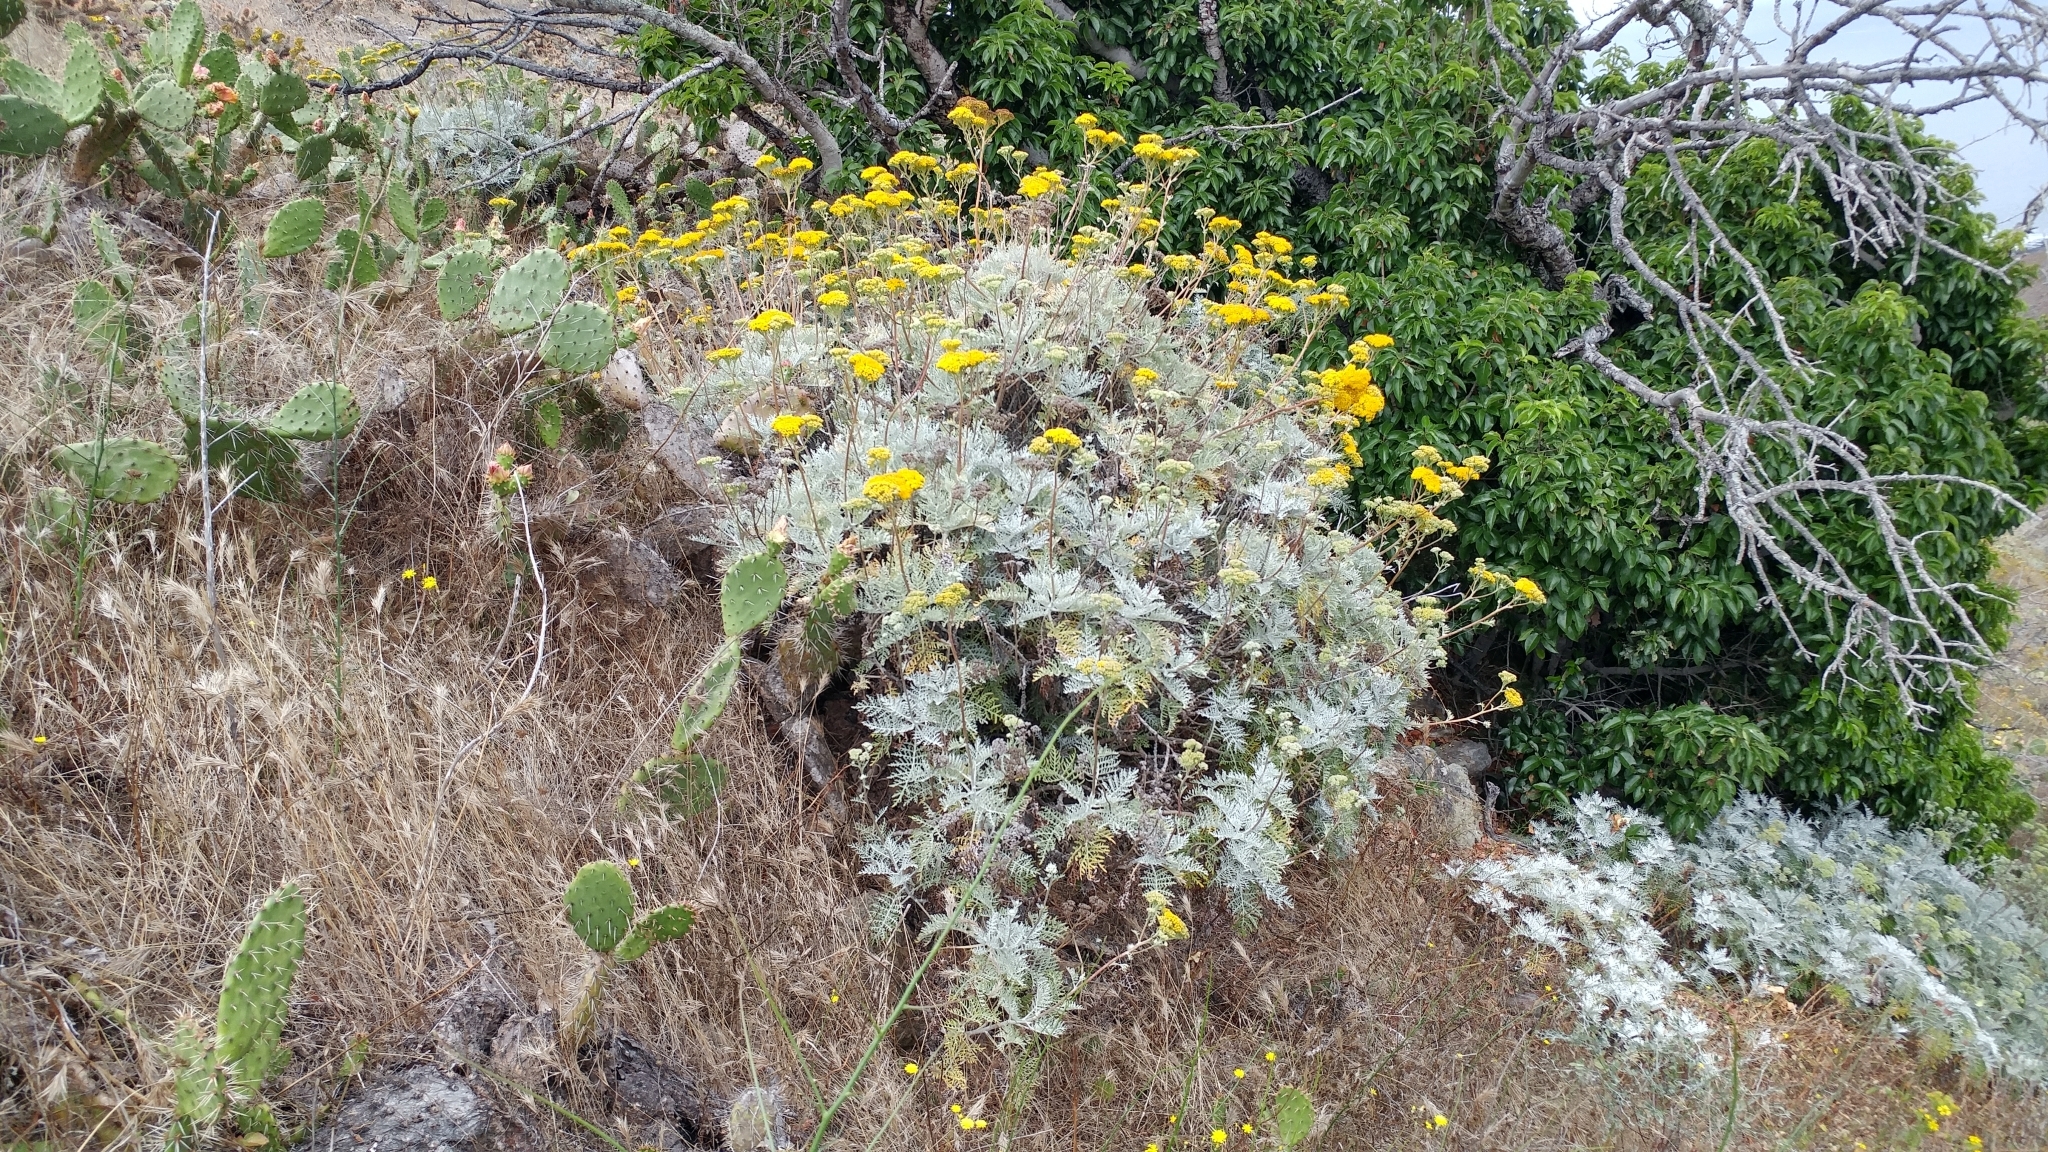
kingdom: Plantae
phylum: Tracheophyta
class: Magnoliopsida
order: Asterales
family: Asteraceae
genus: Constancea
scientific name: Constancea nevinii
